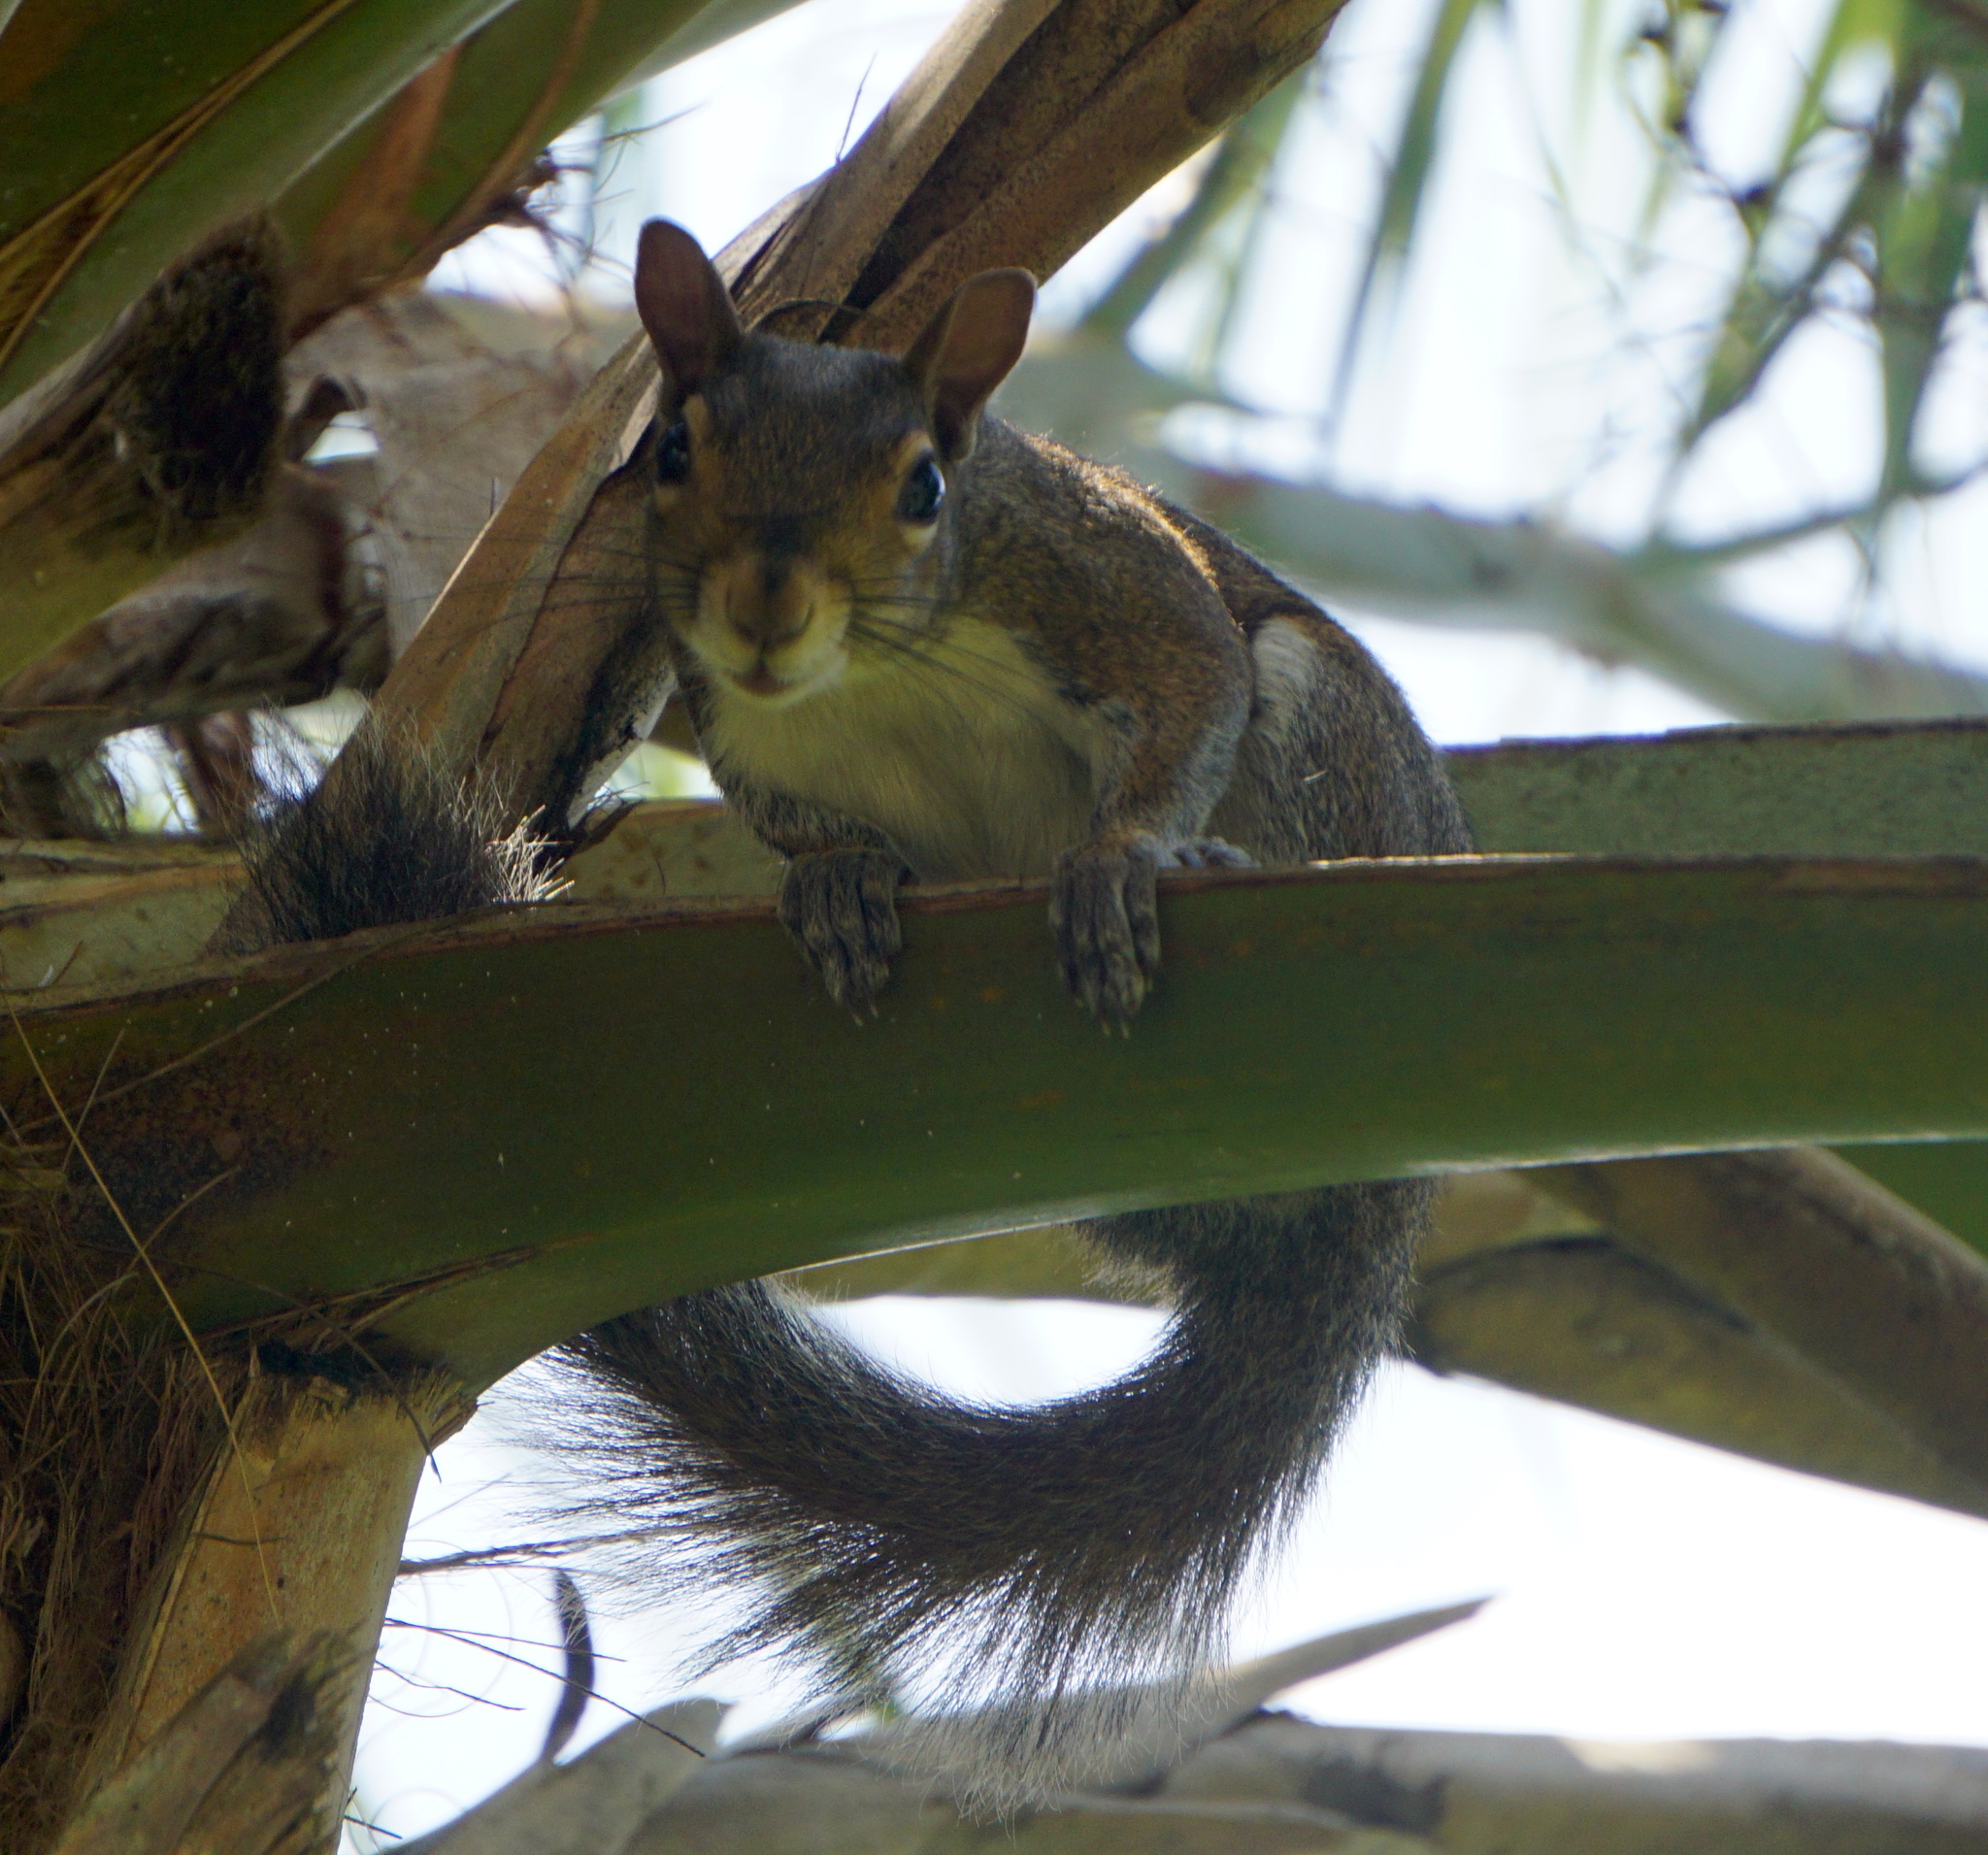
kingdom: Animalia
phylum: Chordata
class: Mammalia
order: Rodentia
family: Sciuridae
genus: Sciurus
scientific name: Sciurus carolinensis
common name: Eastern gray squirrel
